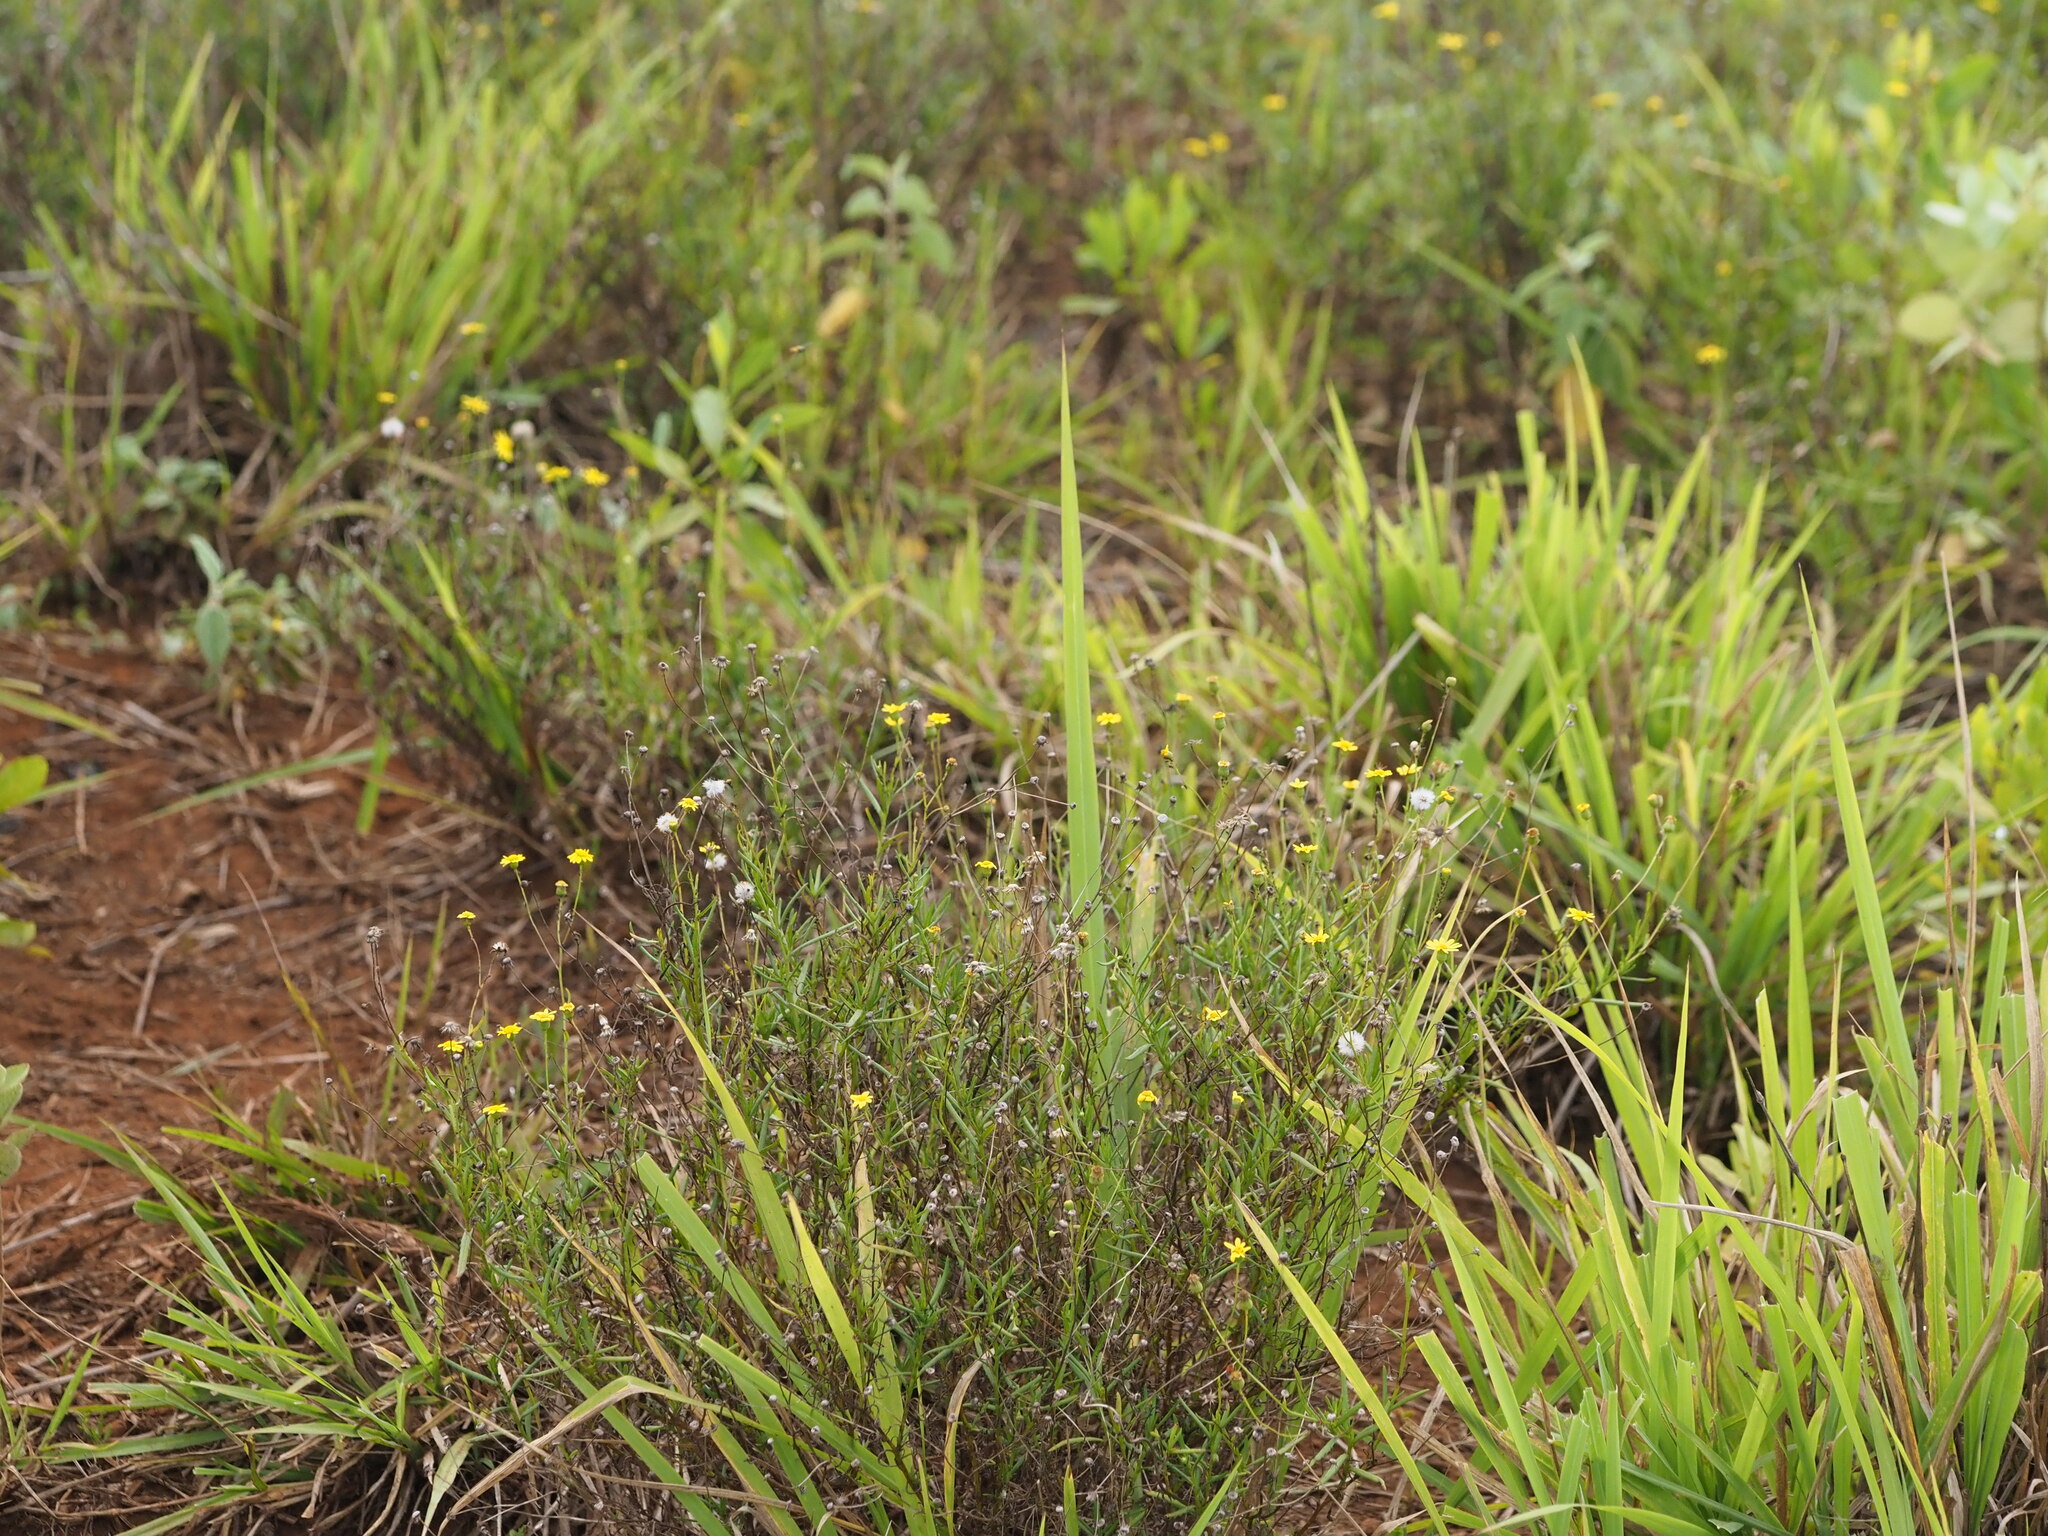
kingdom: Plantae
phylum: Tracheophyta
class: Magnoliopsida
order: Asterales
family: Asteraceae
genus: Senecio
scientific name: Senecio madagascariensis
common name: Madagascar ragwort
